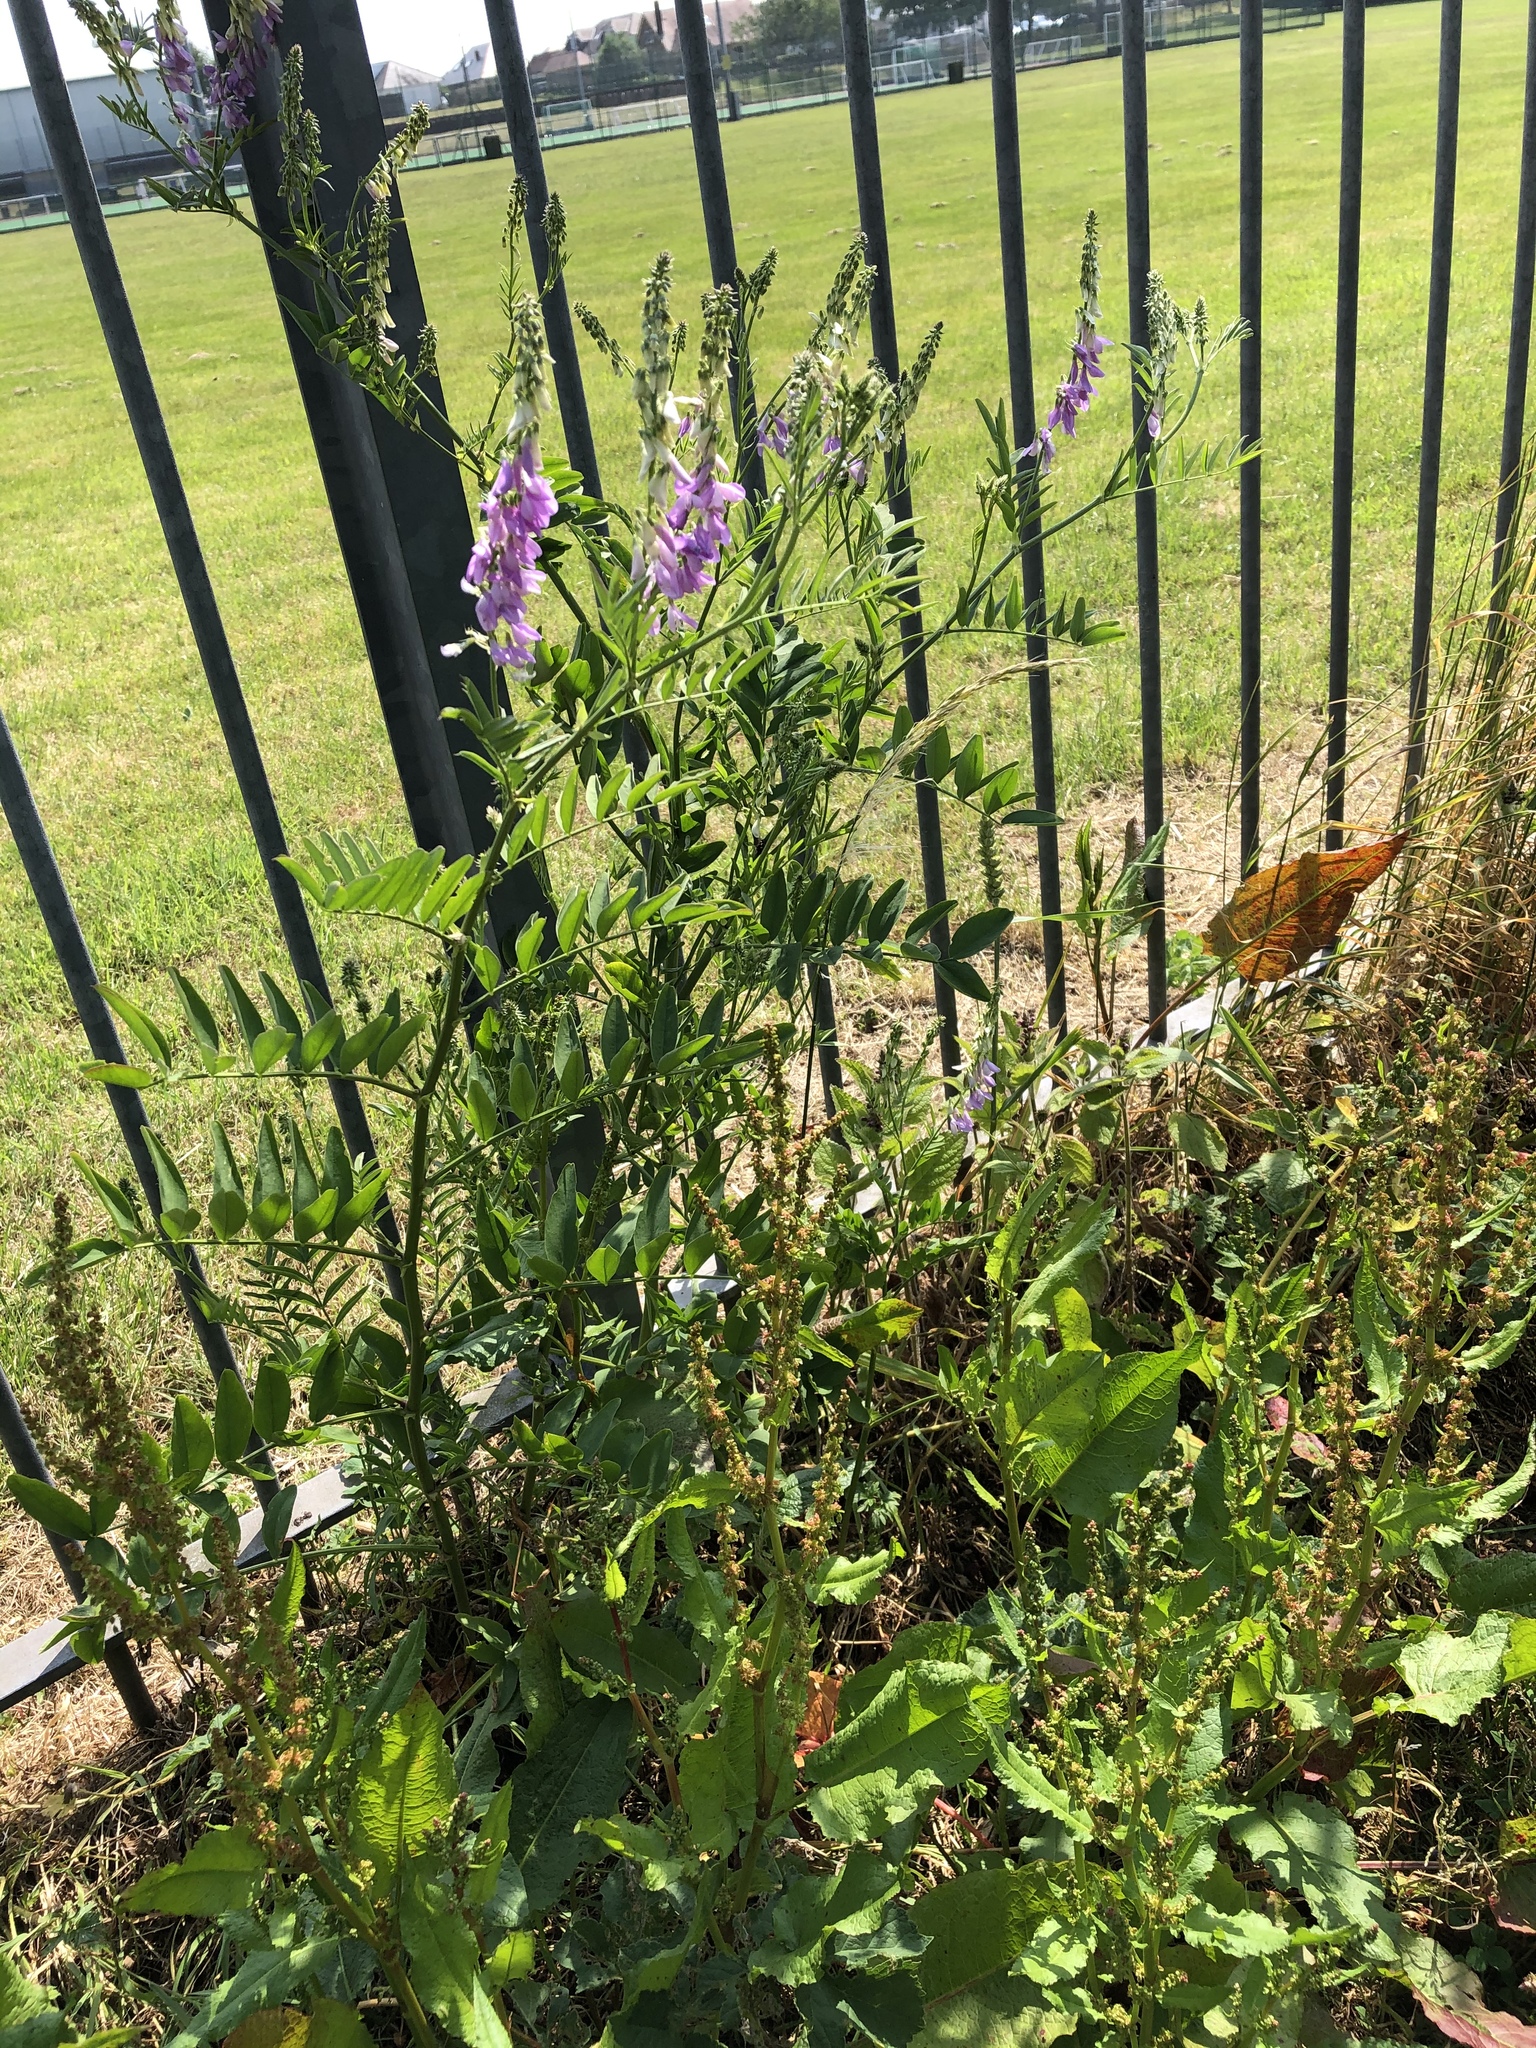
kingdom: Plantae
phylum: Tracheophyta
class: Magnoliopsida
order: Fabales
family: Fabaceae
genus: Galega
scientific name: Galega officinalis
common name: Goat's-rue
